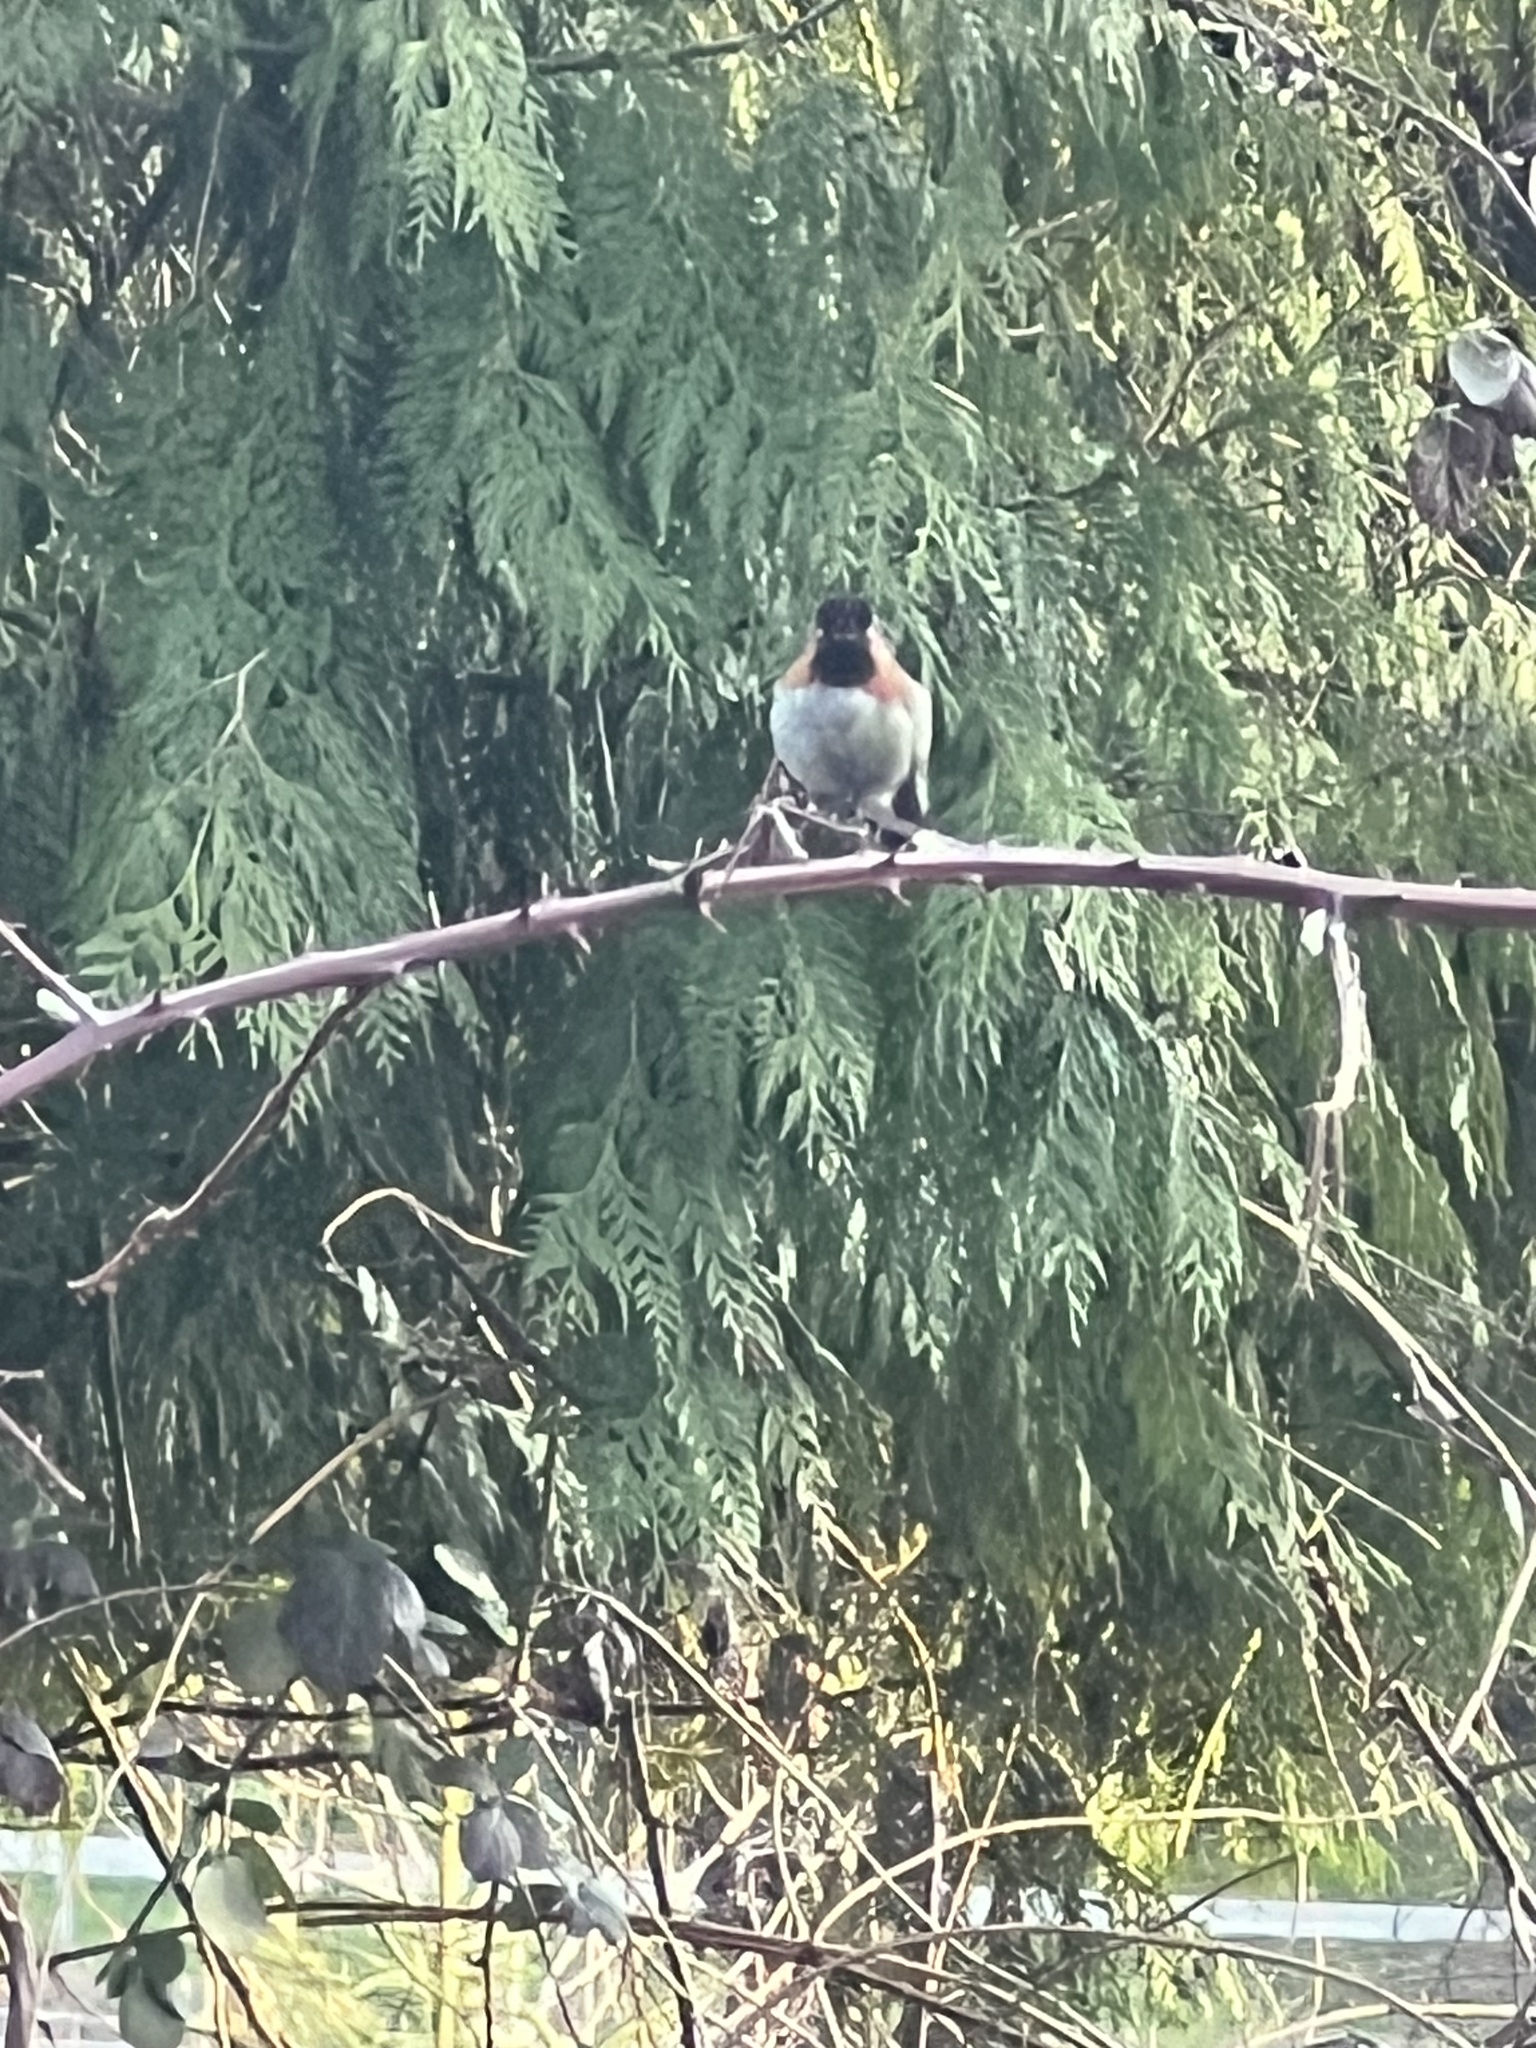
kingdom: Animalia
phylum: Chordata
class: Aves
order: Apodiformes
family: Trochilidae
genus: Calypte
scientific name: Calypte anna
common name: Anna's hummingbird
